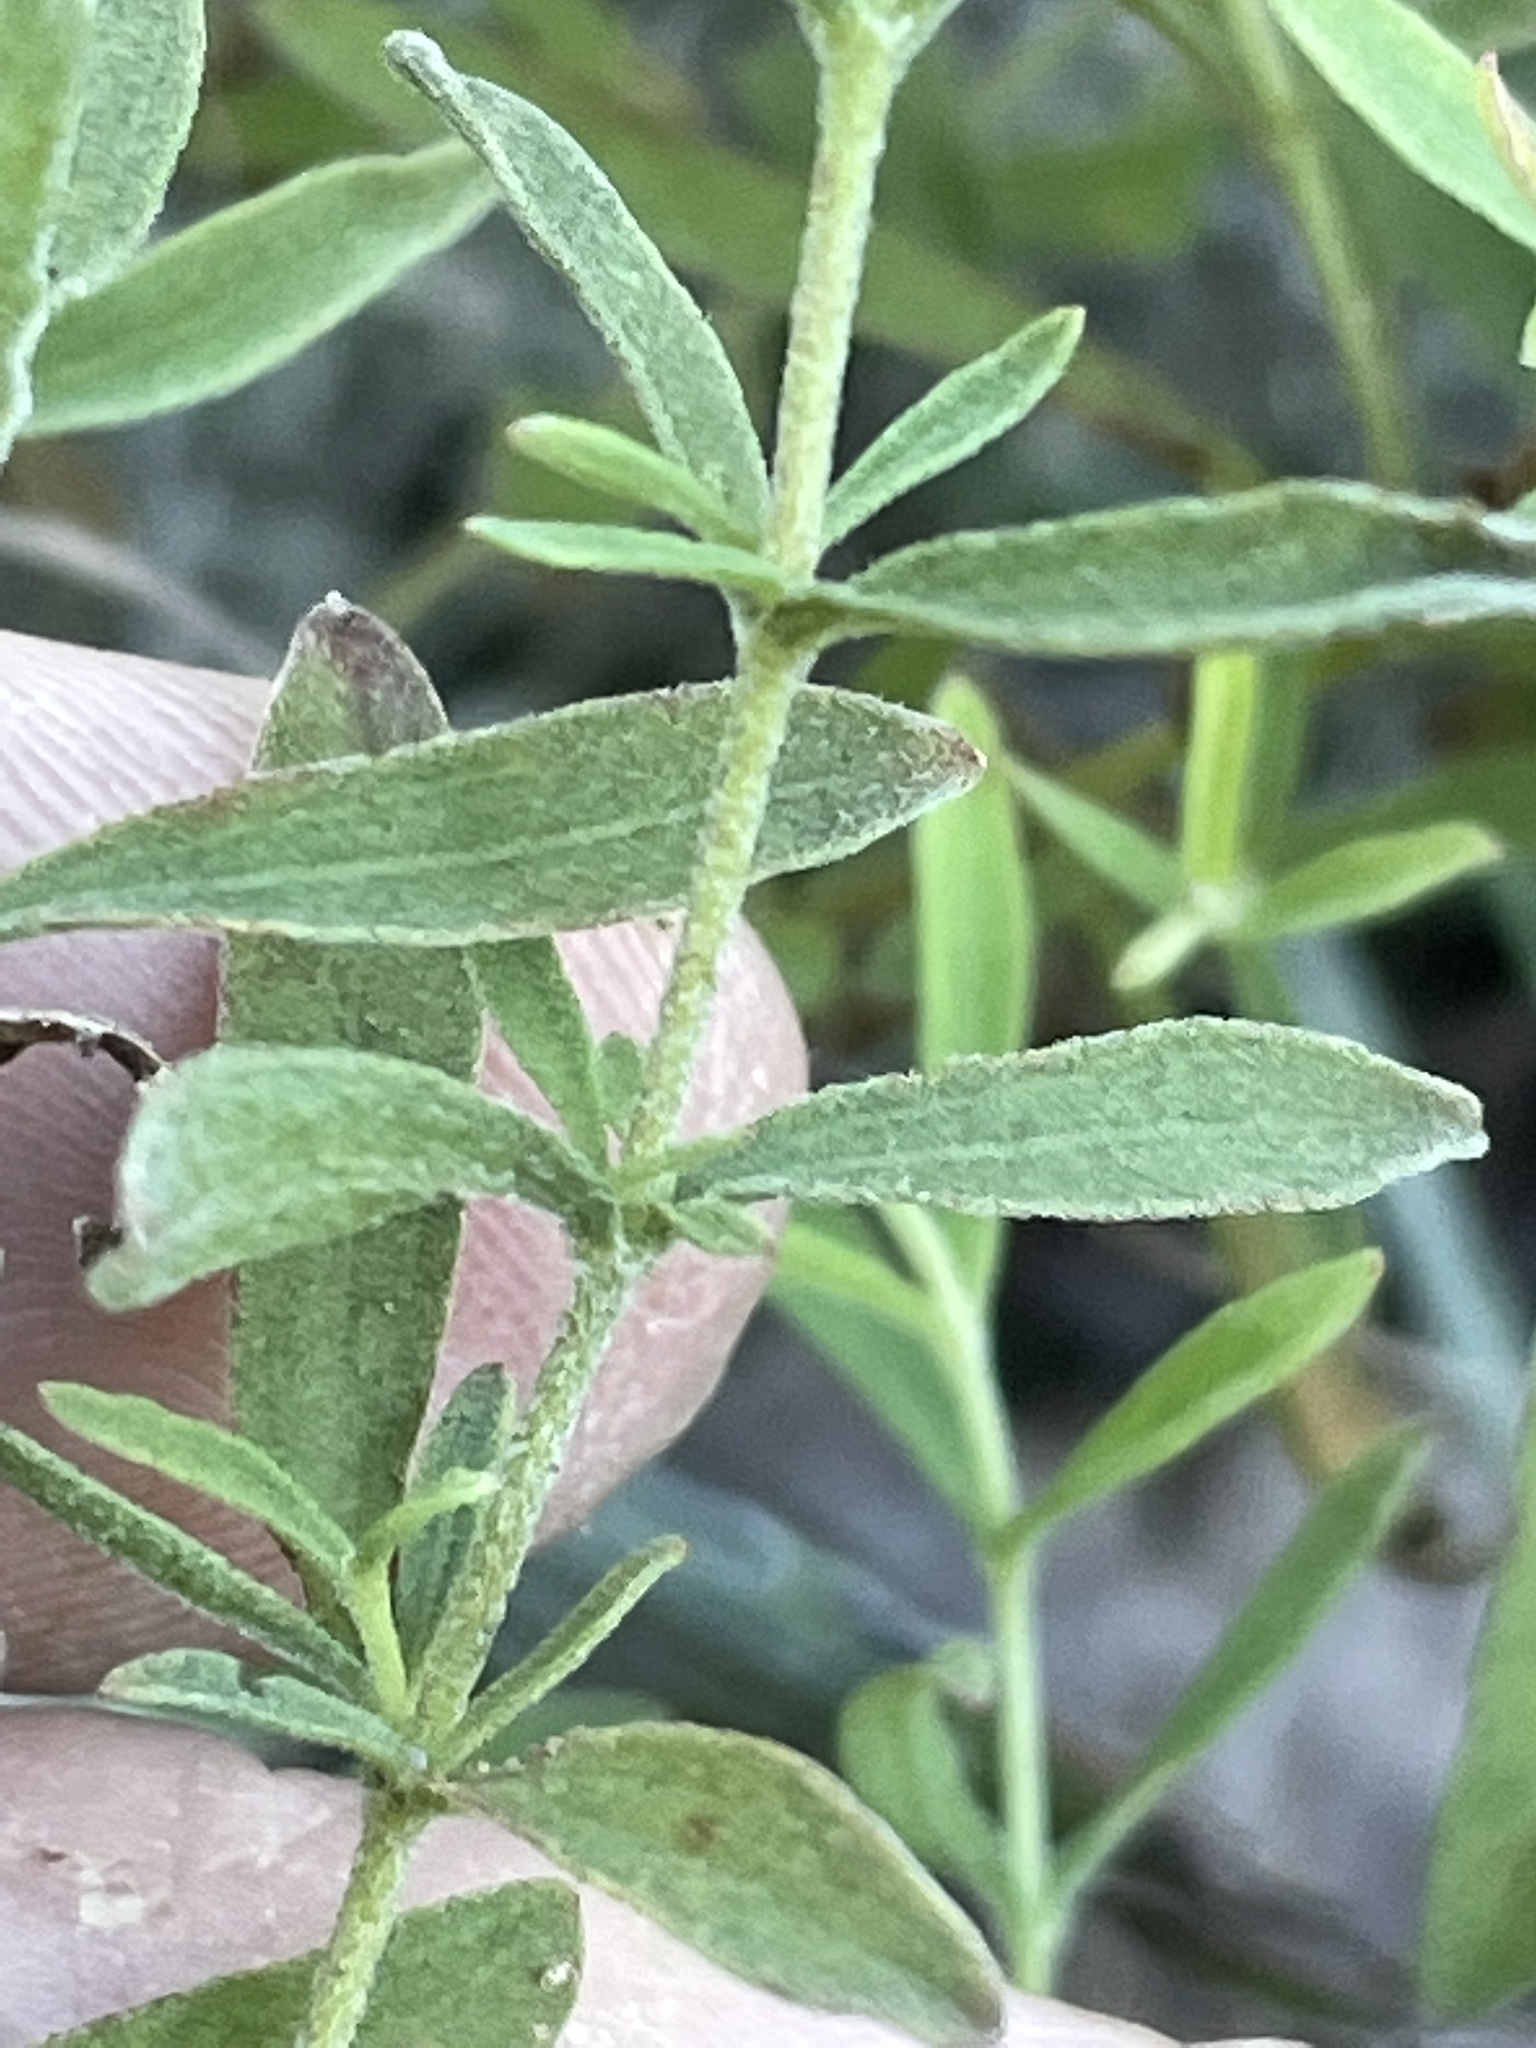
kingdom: Plantae
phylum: Tracheophyta
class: Magnoliopsida
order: Asterales
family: Asteraceae
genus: Eupatorium
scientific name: Eupatorium linearifolium
